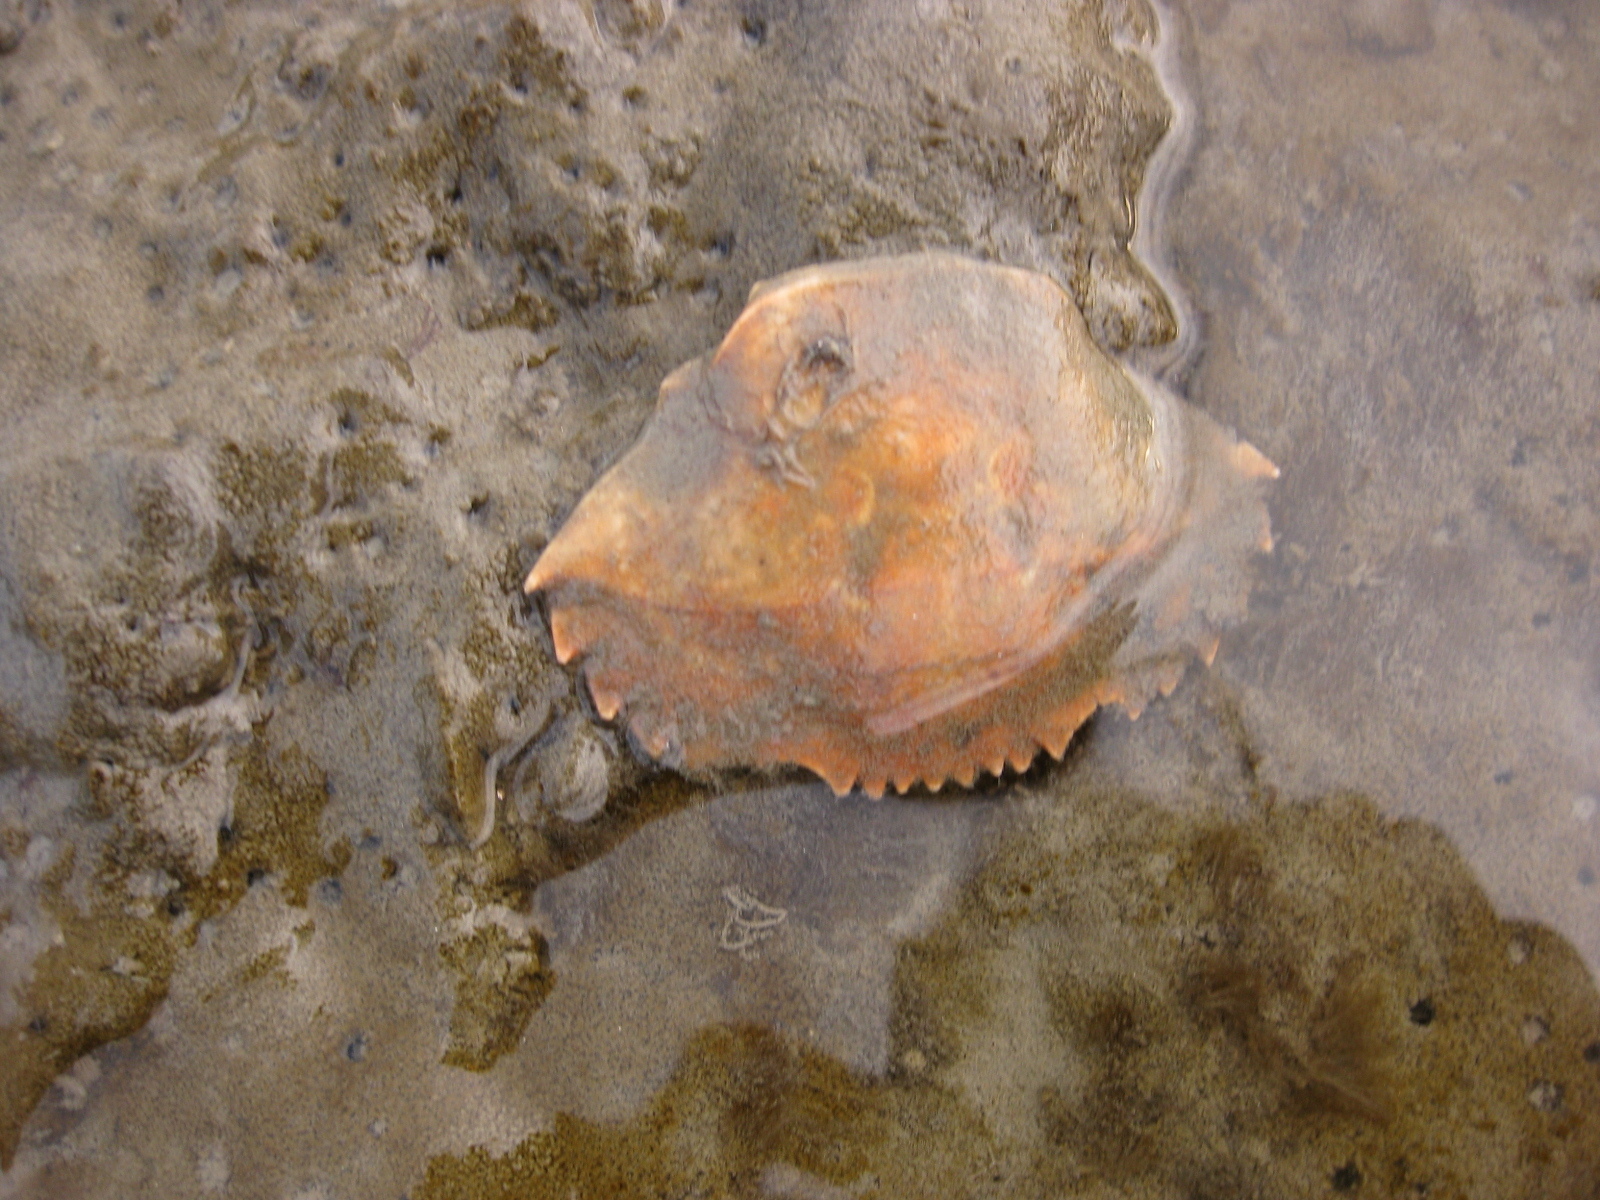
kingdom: Animalia
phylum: Arthropoda
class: Malacostraca
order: Decapoda
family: Portunidae
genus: Charybdis
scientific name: Charybdis japonica
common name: Asian paddle crab
